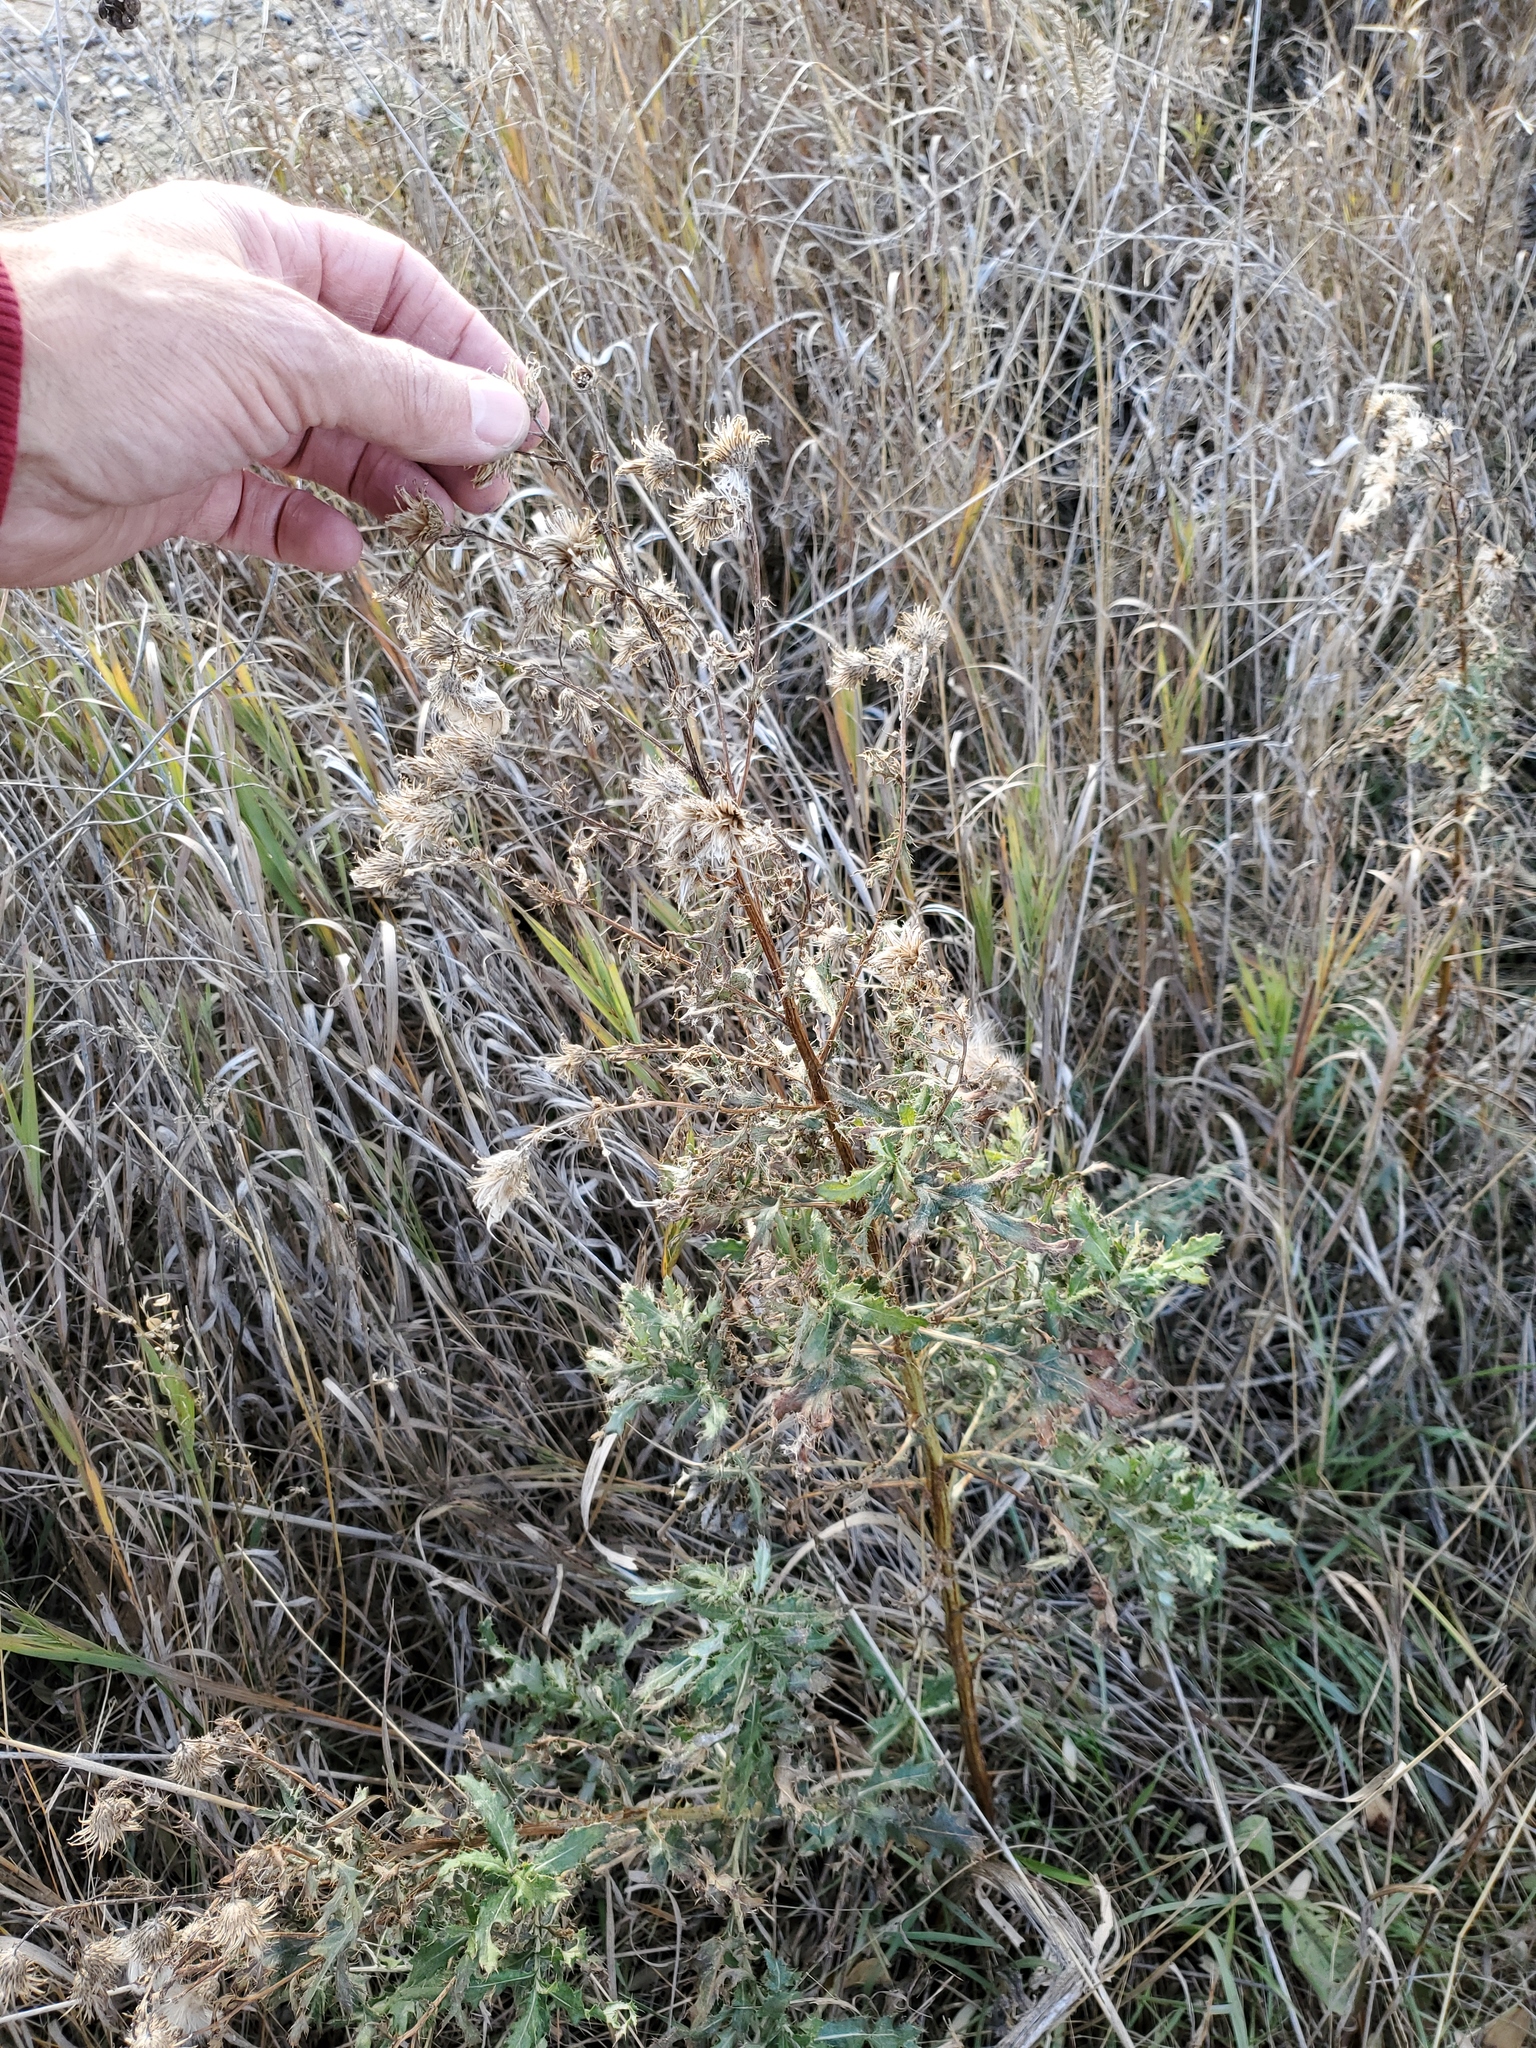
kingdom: Plantae
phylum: Tracheophyta
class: Magnoliopsida
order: Asterales
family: Asteraceae
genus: Cirsium
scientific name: Cirsium arvense
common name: Creeping thistle
